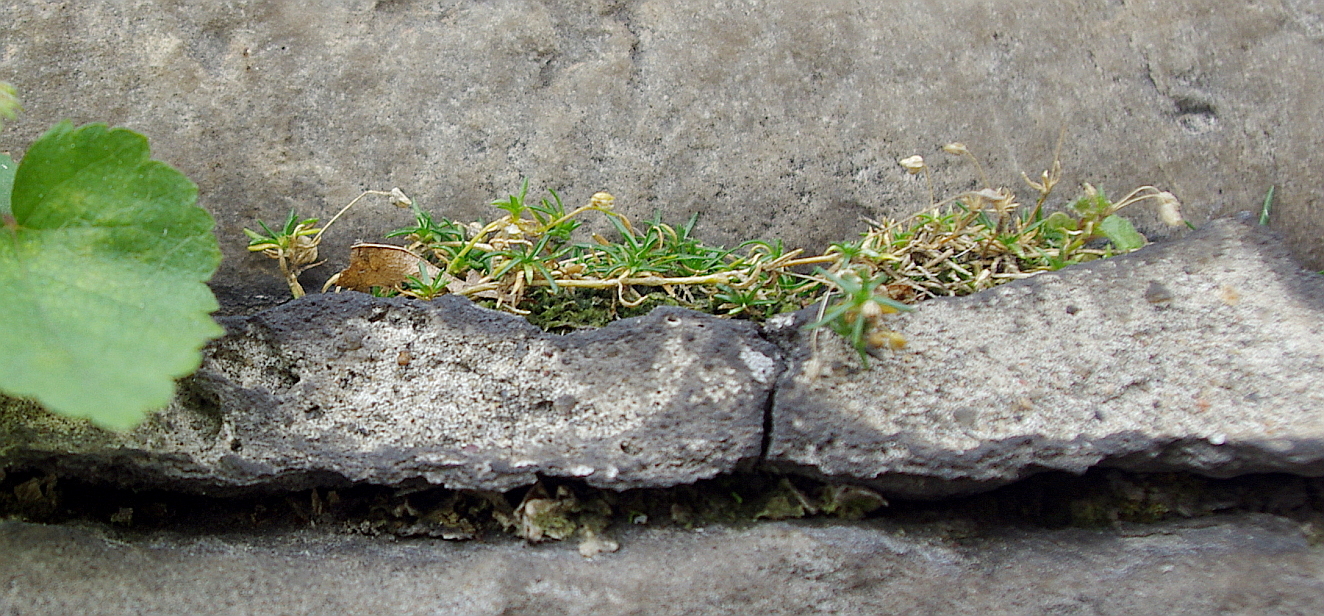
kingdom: Plantae
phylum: Tracheophyta
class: Magnoliopsida
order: Caryophyllales
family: Caryophyllaceae
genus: Sagina
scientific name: Sagina procumbens
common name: Procumbent pearlwort
